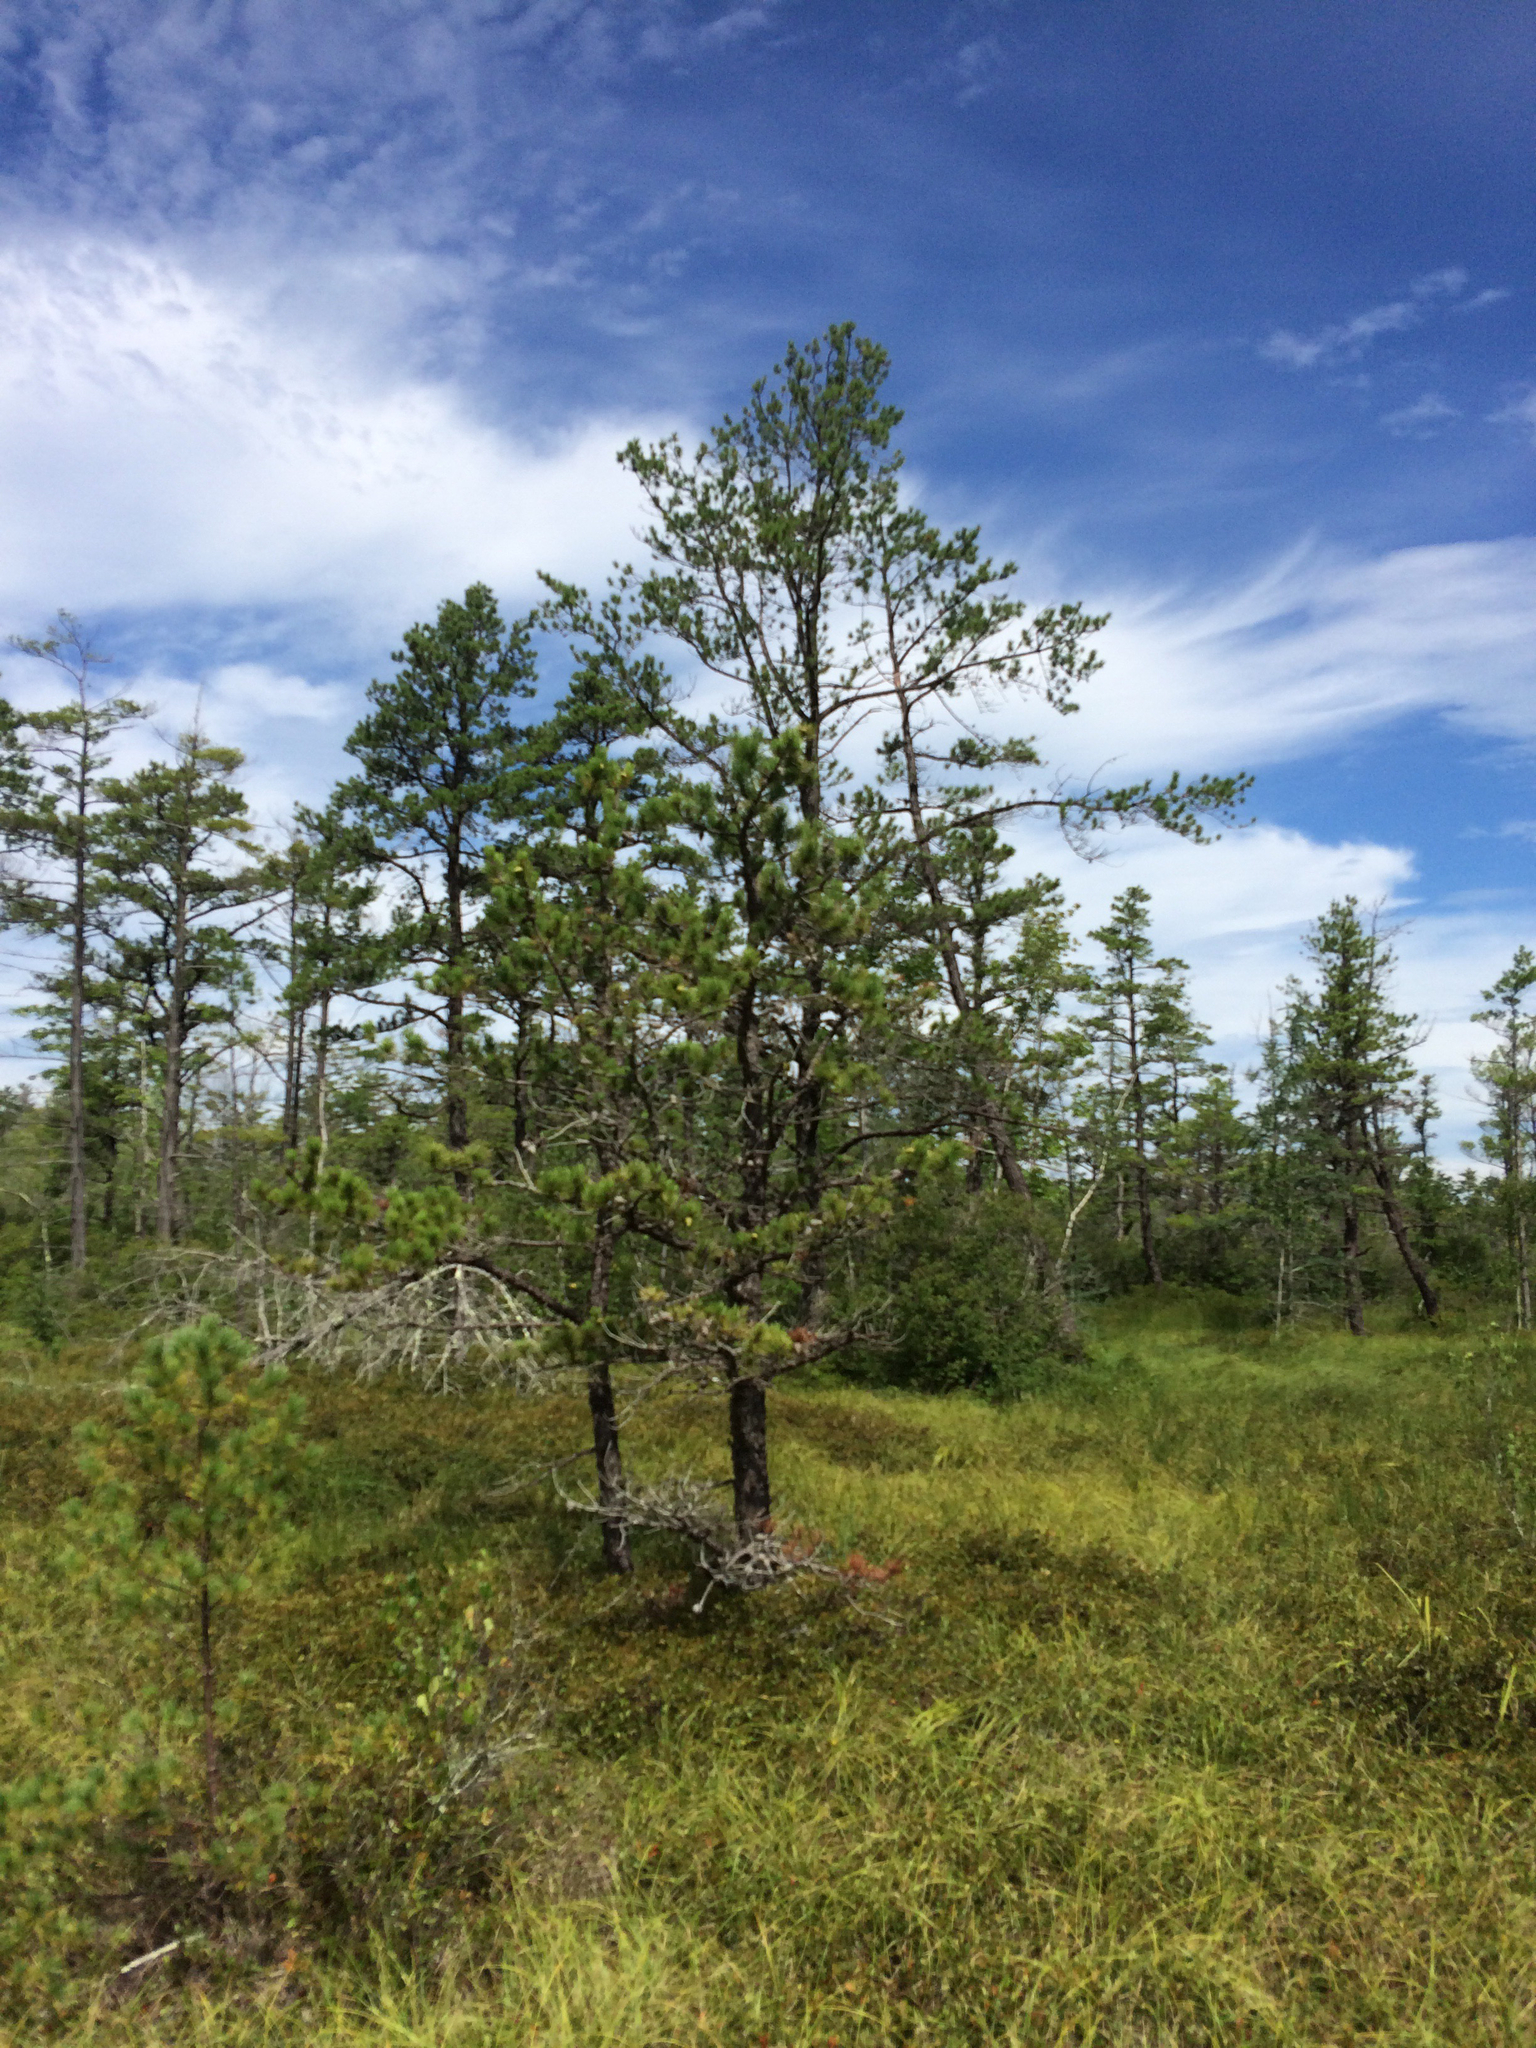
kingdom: Plantae
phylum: Tracheophyta
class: Pinopsida
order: Pinales
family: Pinaceae
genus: Pinus
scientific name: Pinus rigida
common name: Pitch pine
